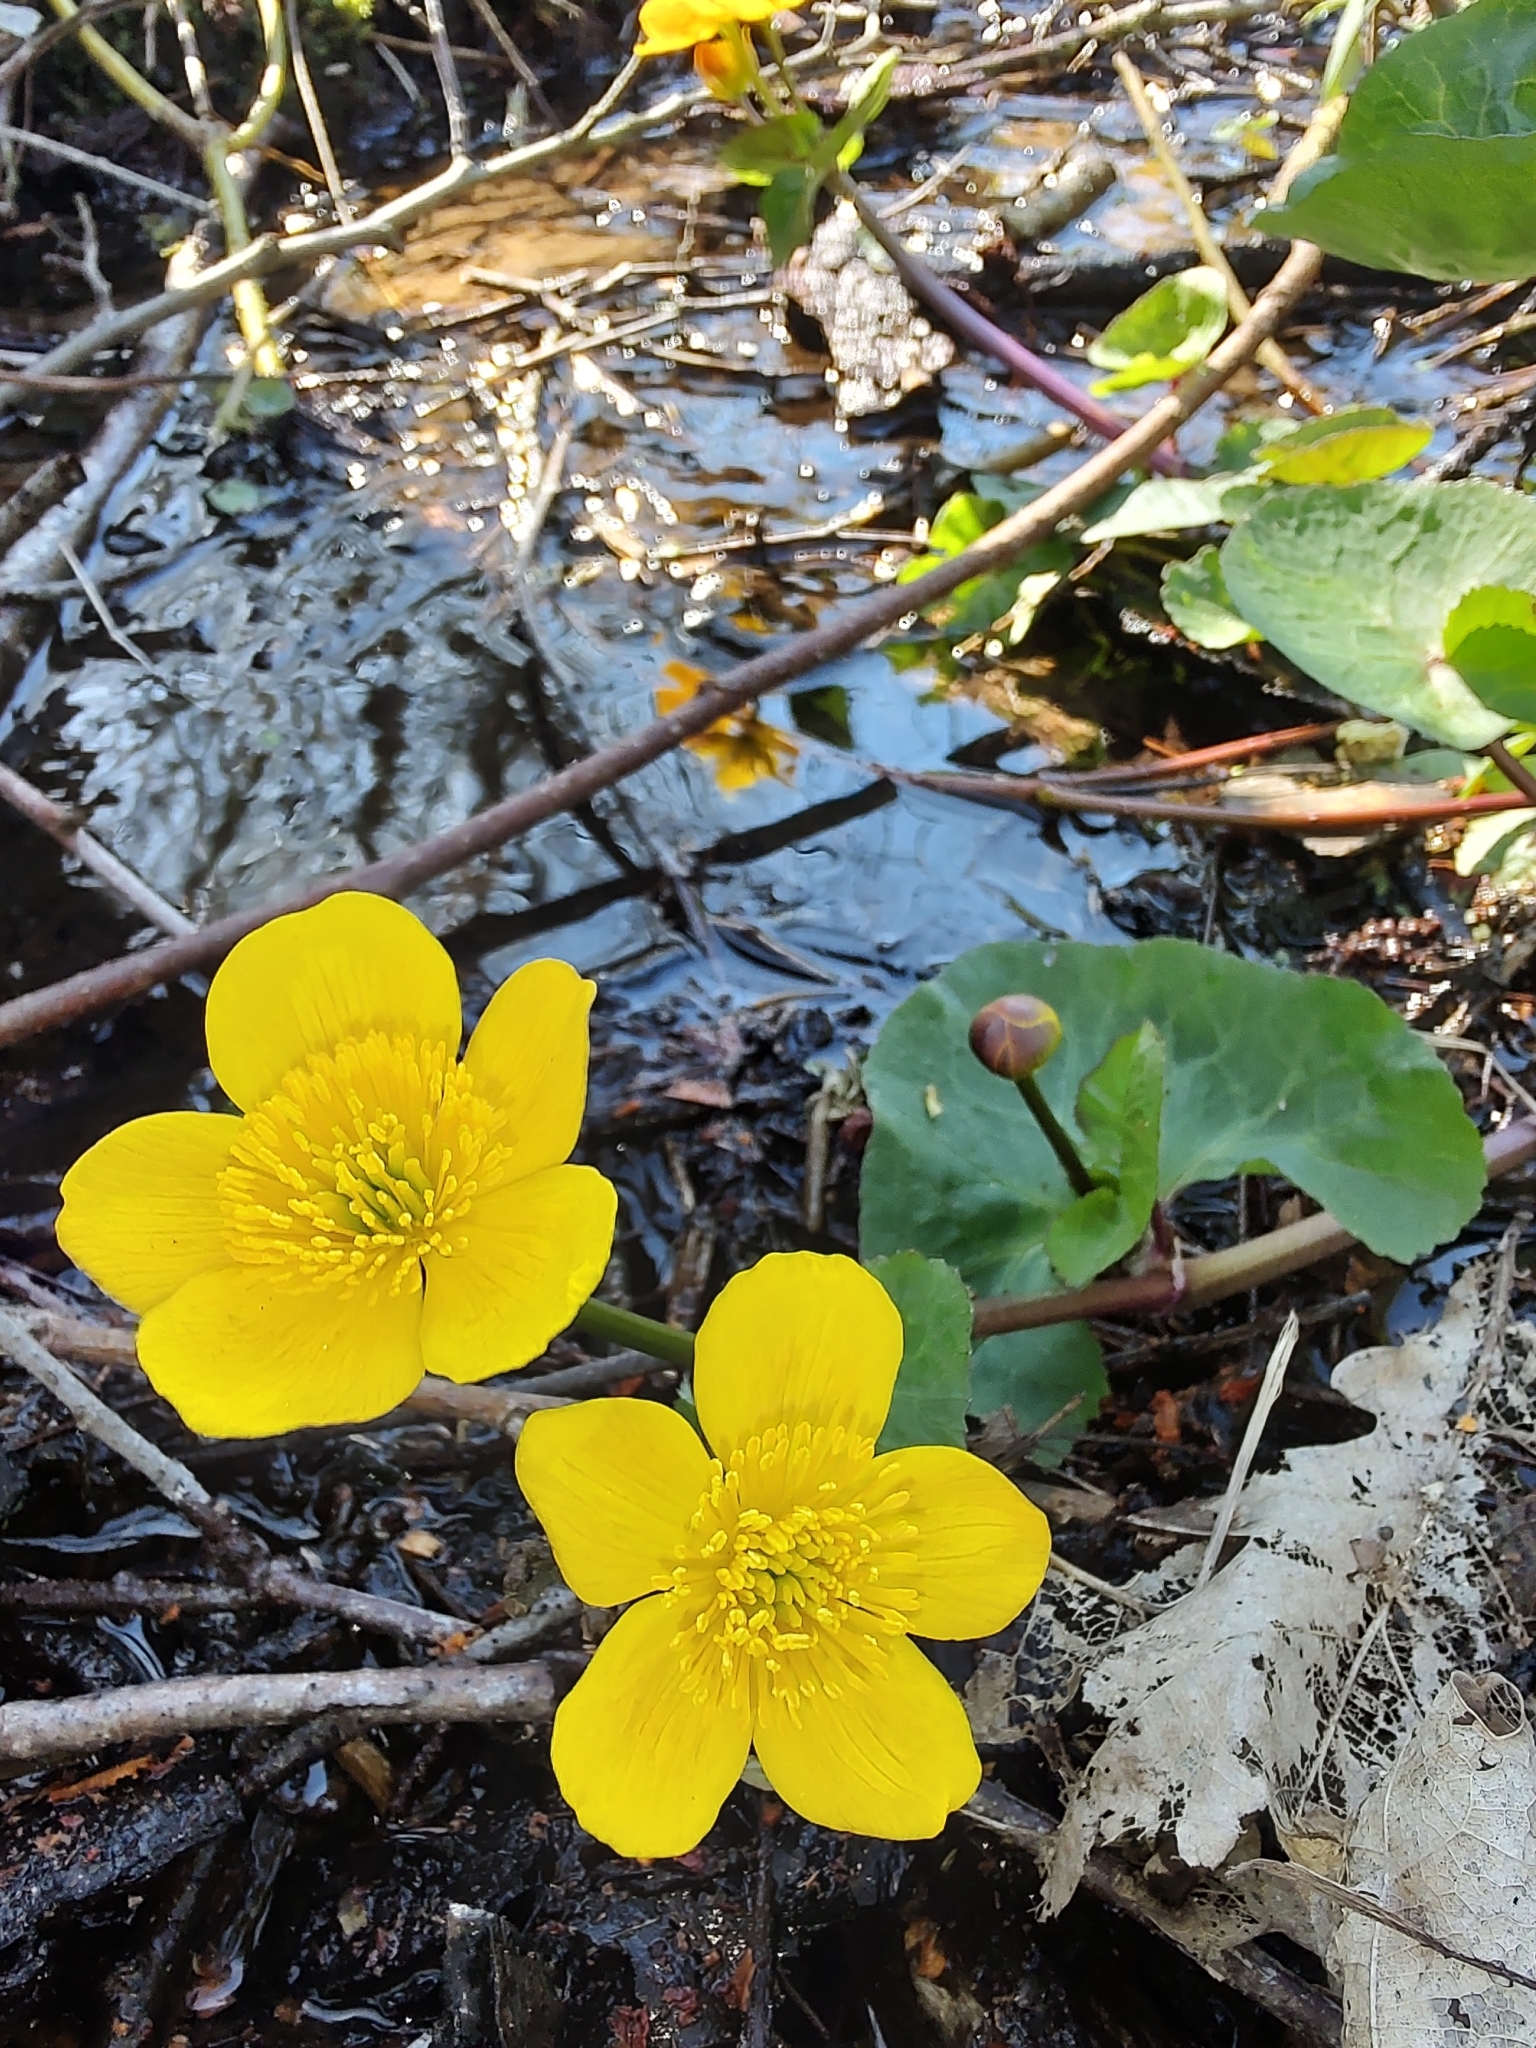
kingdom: Plantae
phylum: Tracheophyta
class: Magnoliopsida
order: Ranunculales
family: Ranunculaceae
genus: Caltha
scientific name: Caltha palustris
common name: Marsh marigold
